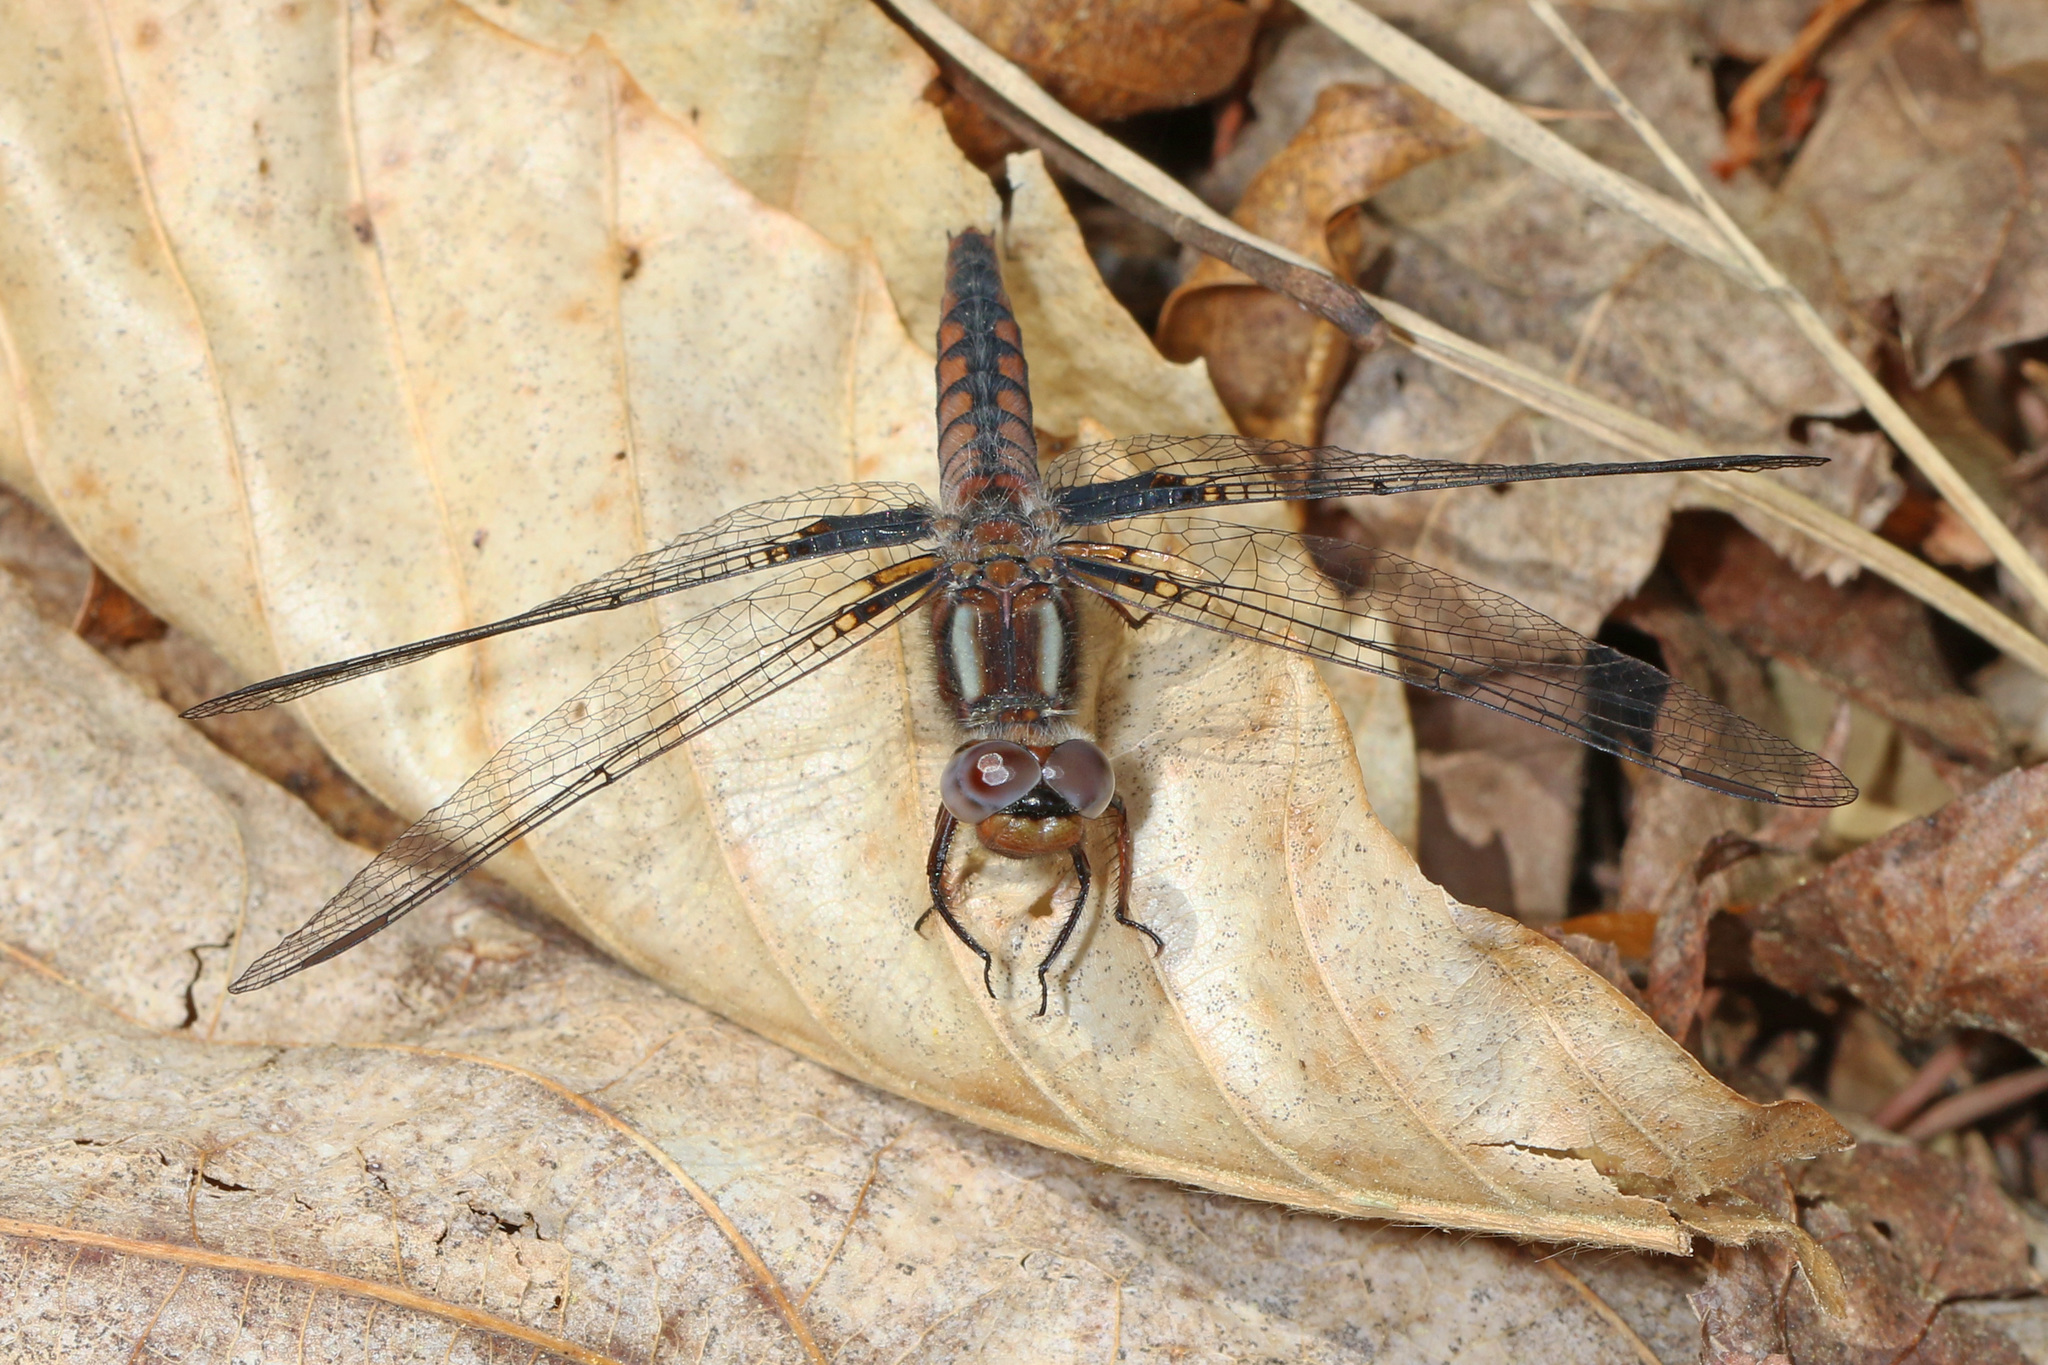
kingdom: Animalia
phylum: Arthropoda
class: Insecta
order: Odonata
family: Libellulidae
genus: Ladona
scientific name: Ladona deplanata
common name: Blue corporal
